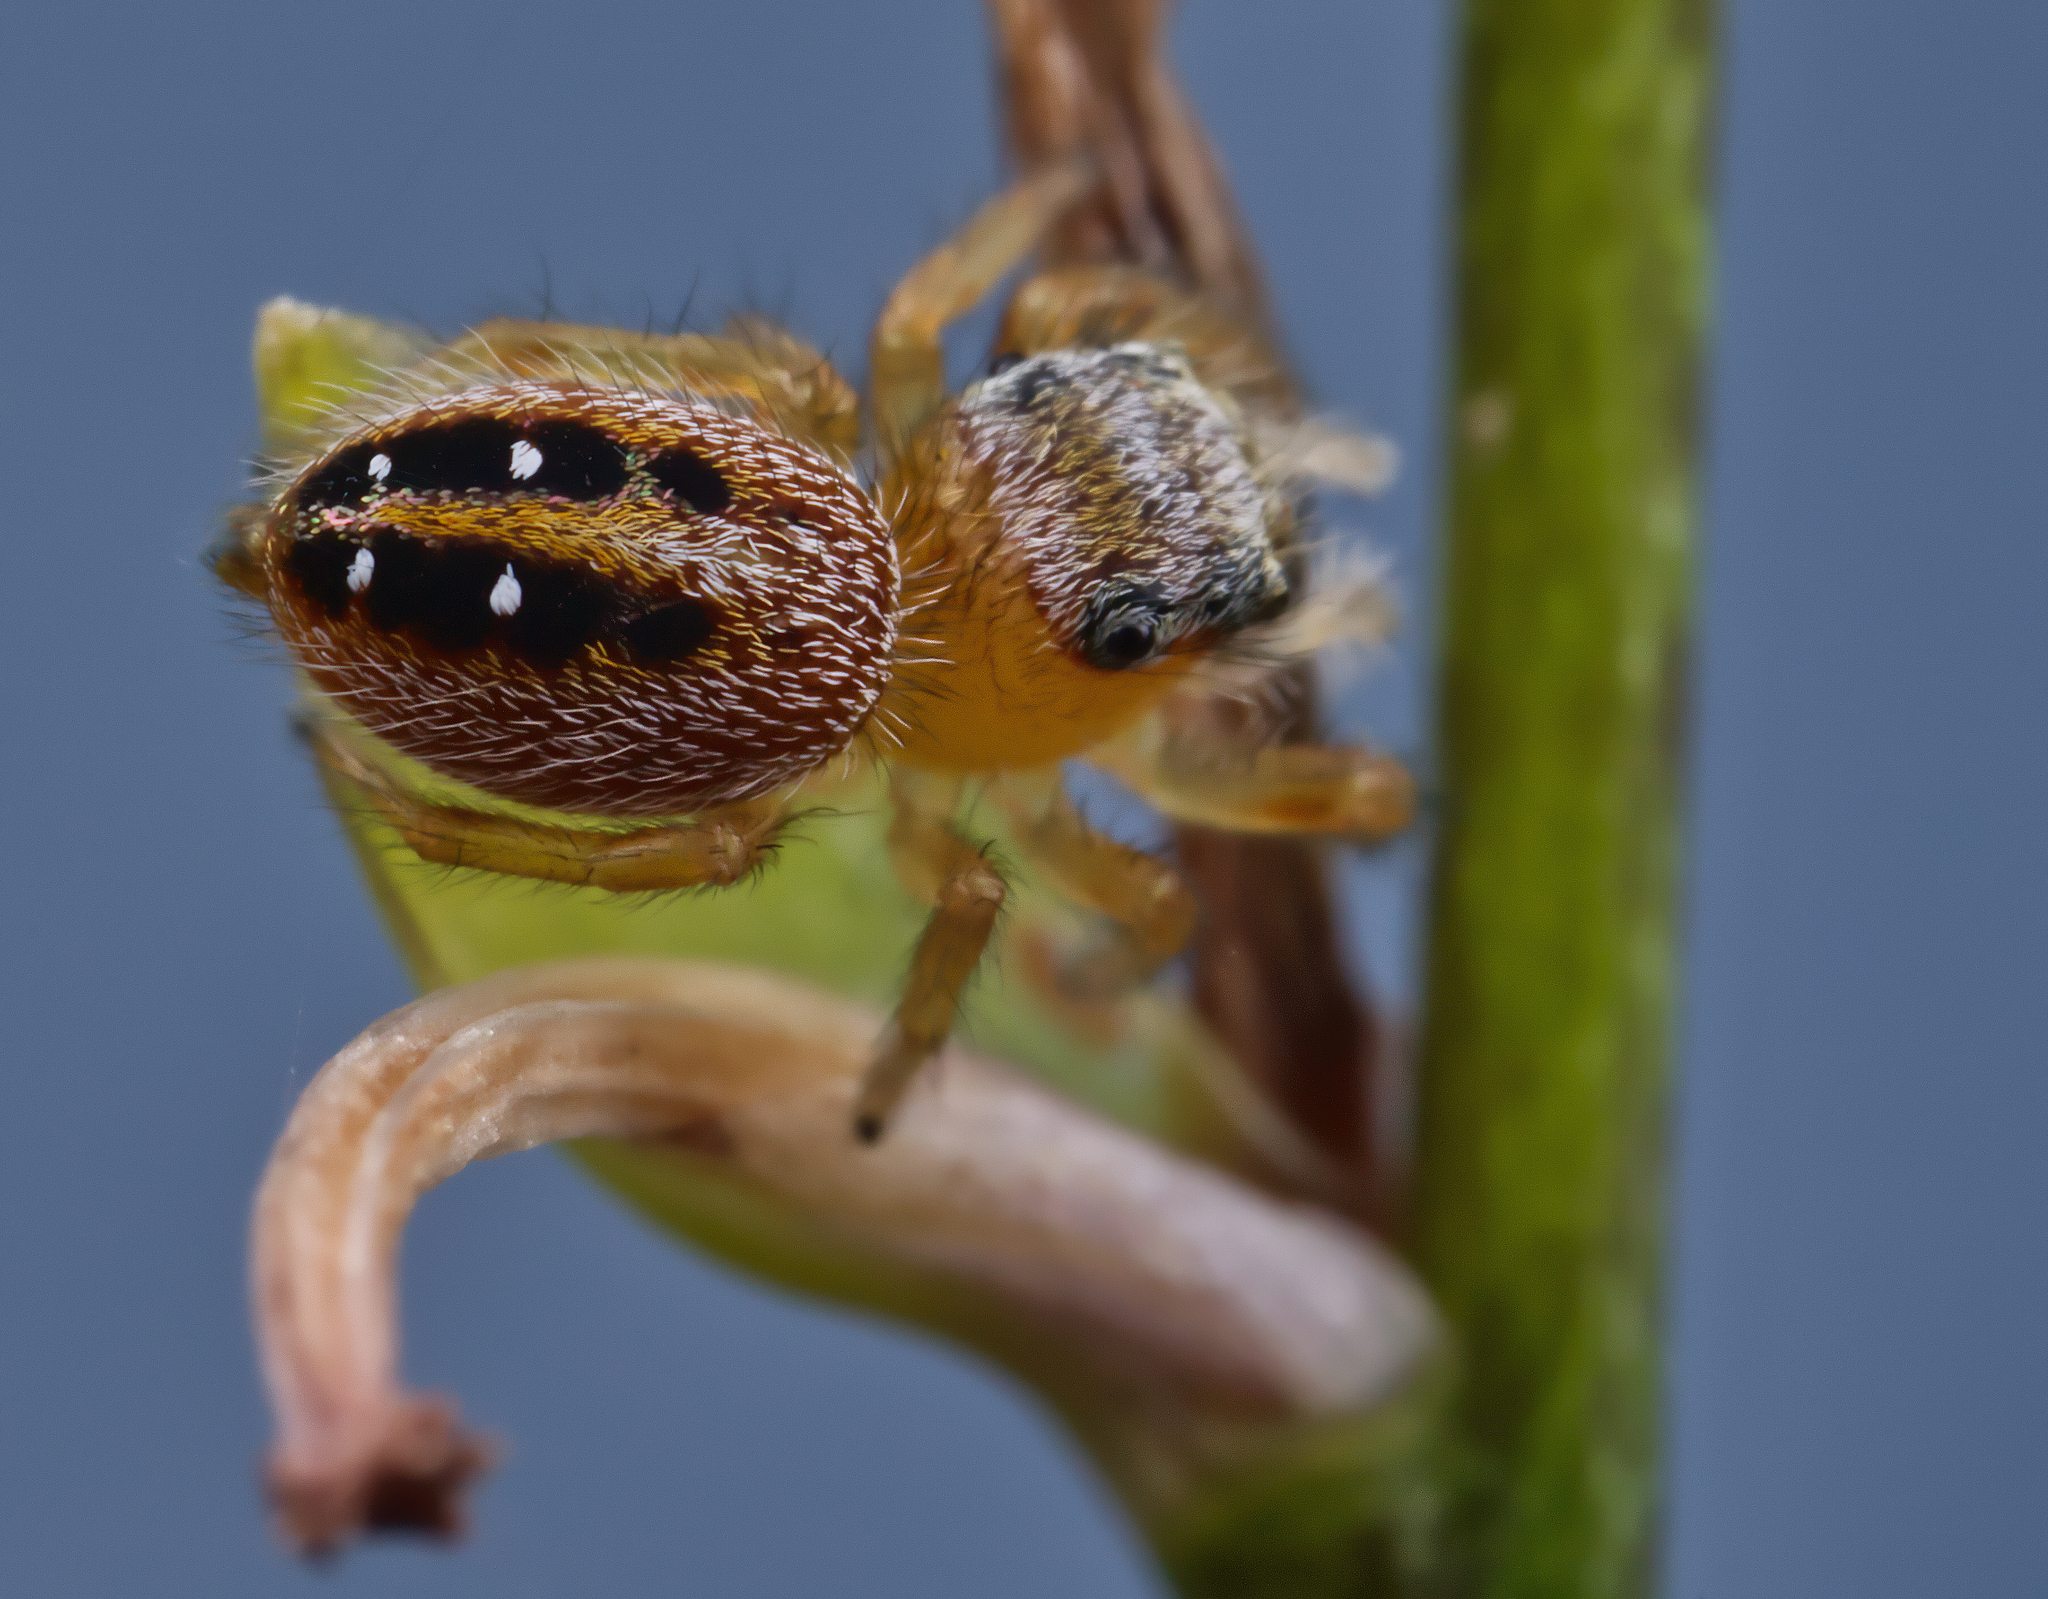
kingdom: Animalia
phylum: Arthropoda
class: Arachnida
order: Araneae
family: Salticidae
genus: Phidippus
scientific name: Phidippus pius
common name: Jumping spiders
